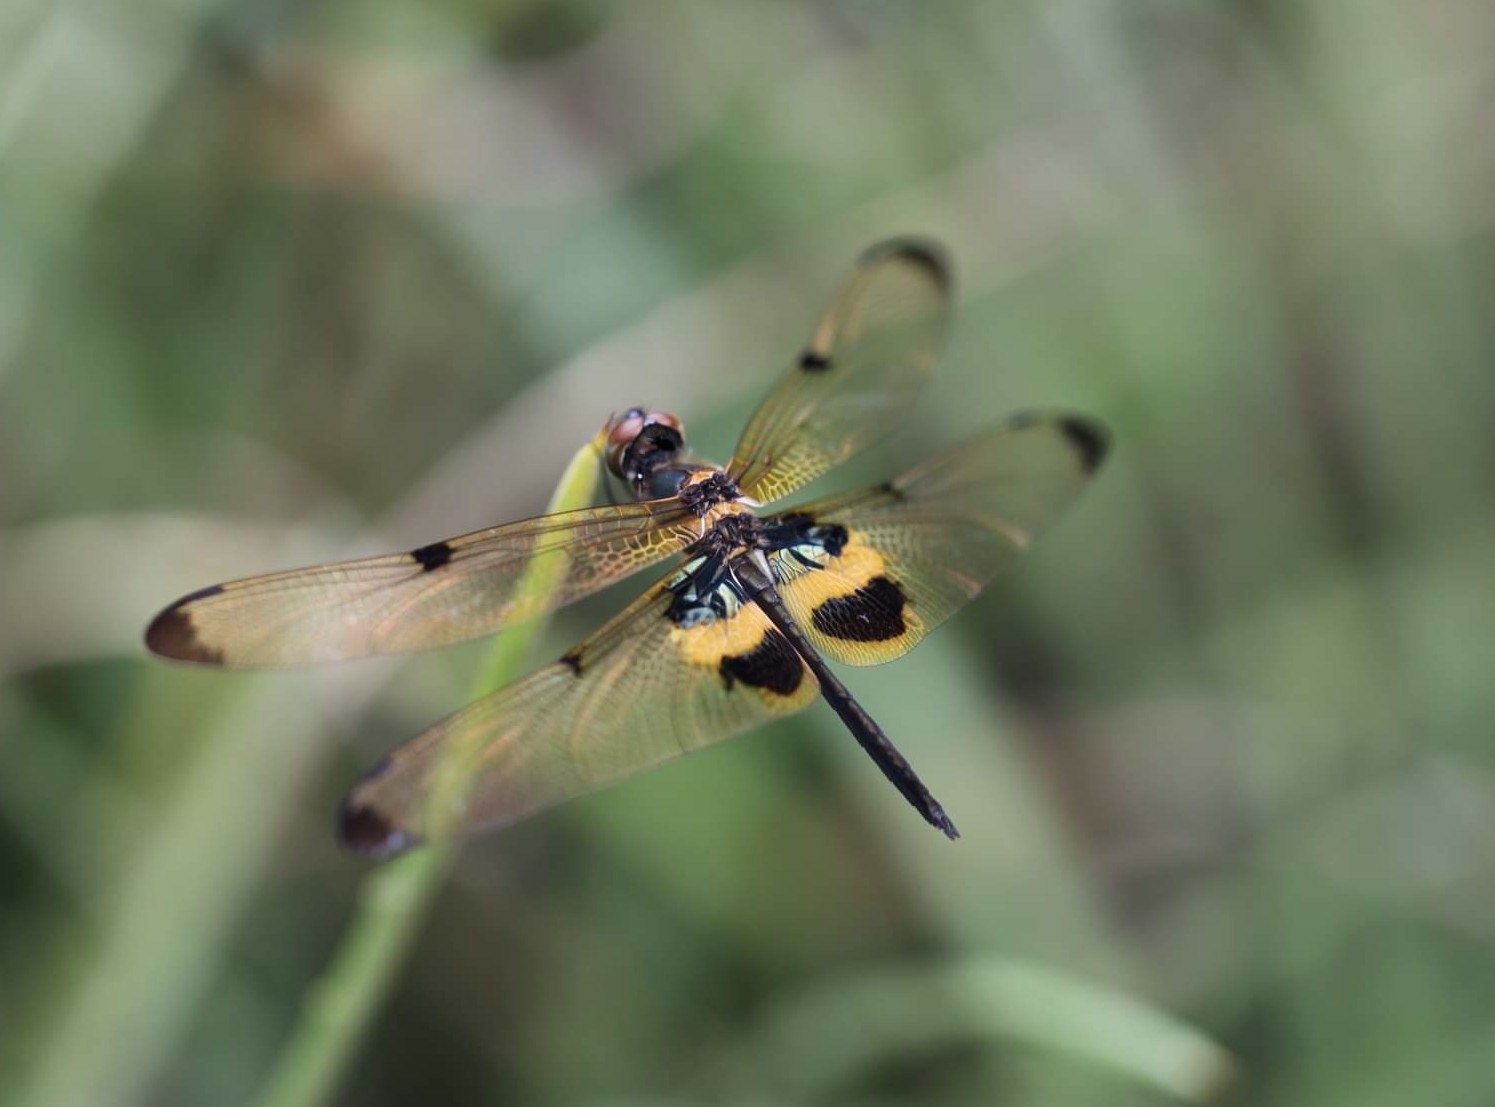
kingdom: Animalia
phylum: Arthropoda
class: Insecta
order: Odonata
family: Libellulidae
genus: Rhyothemis
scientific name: Rhyothemis phyllis
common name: Yellow-barred flutterer
